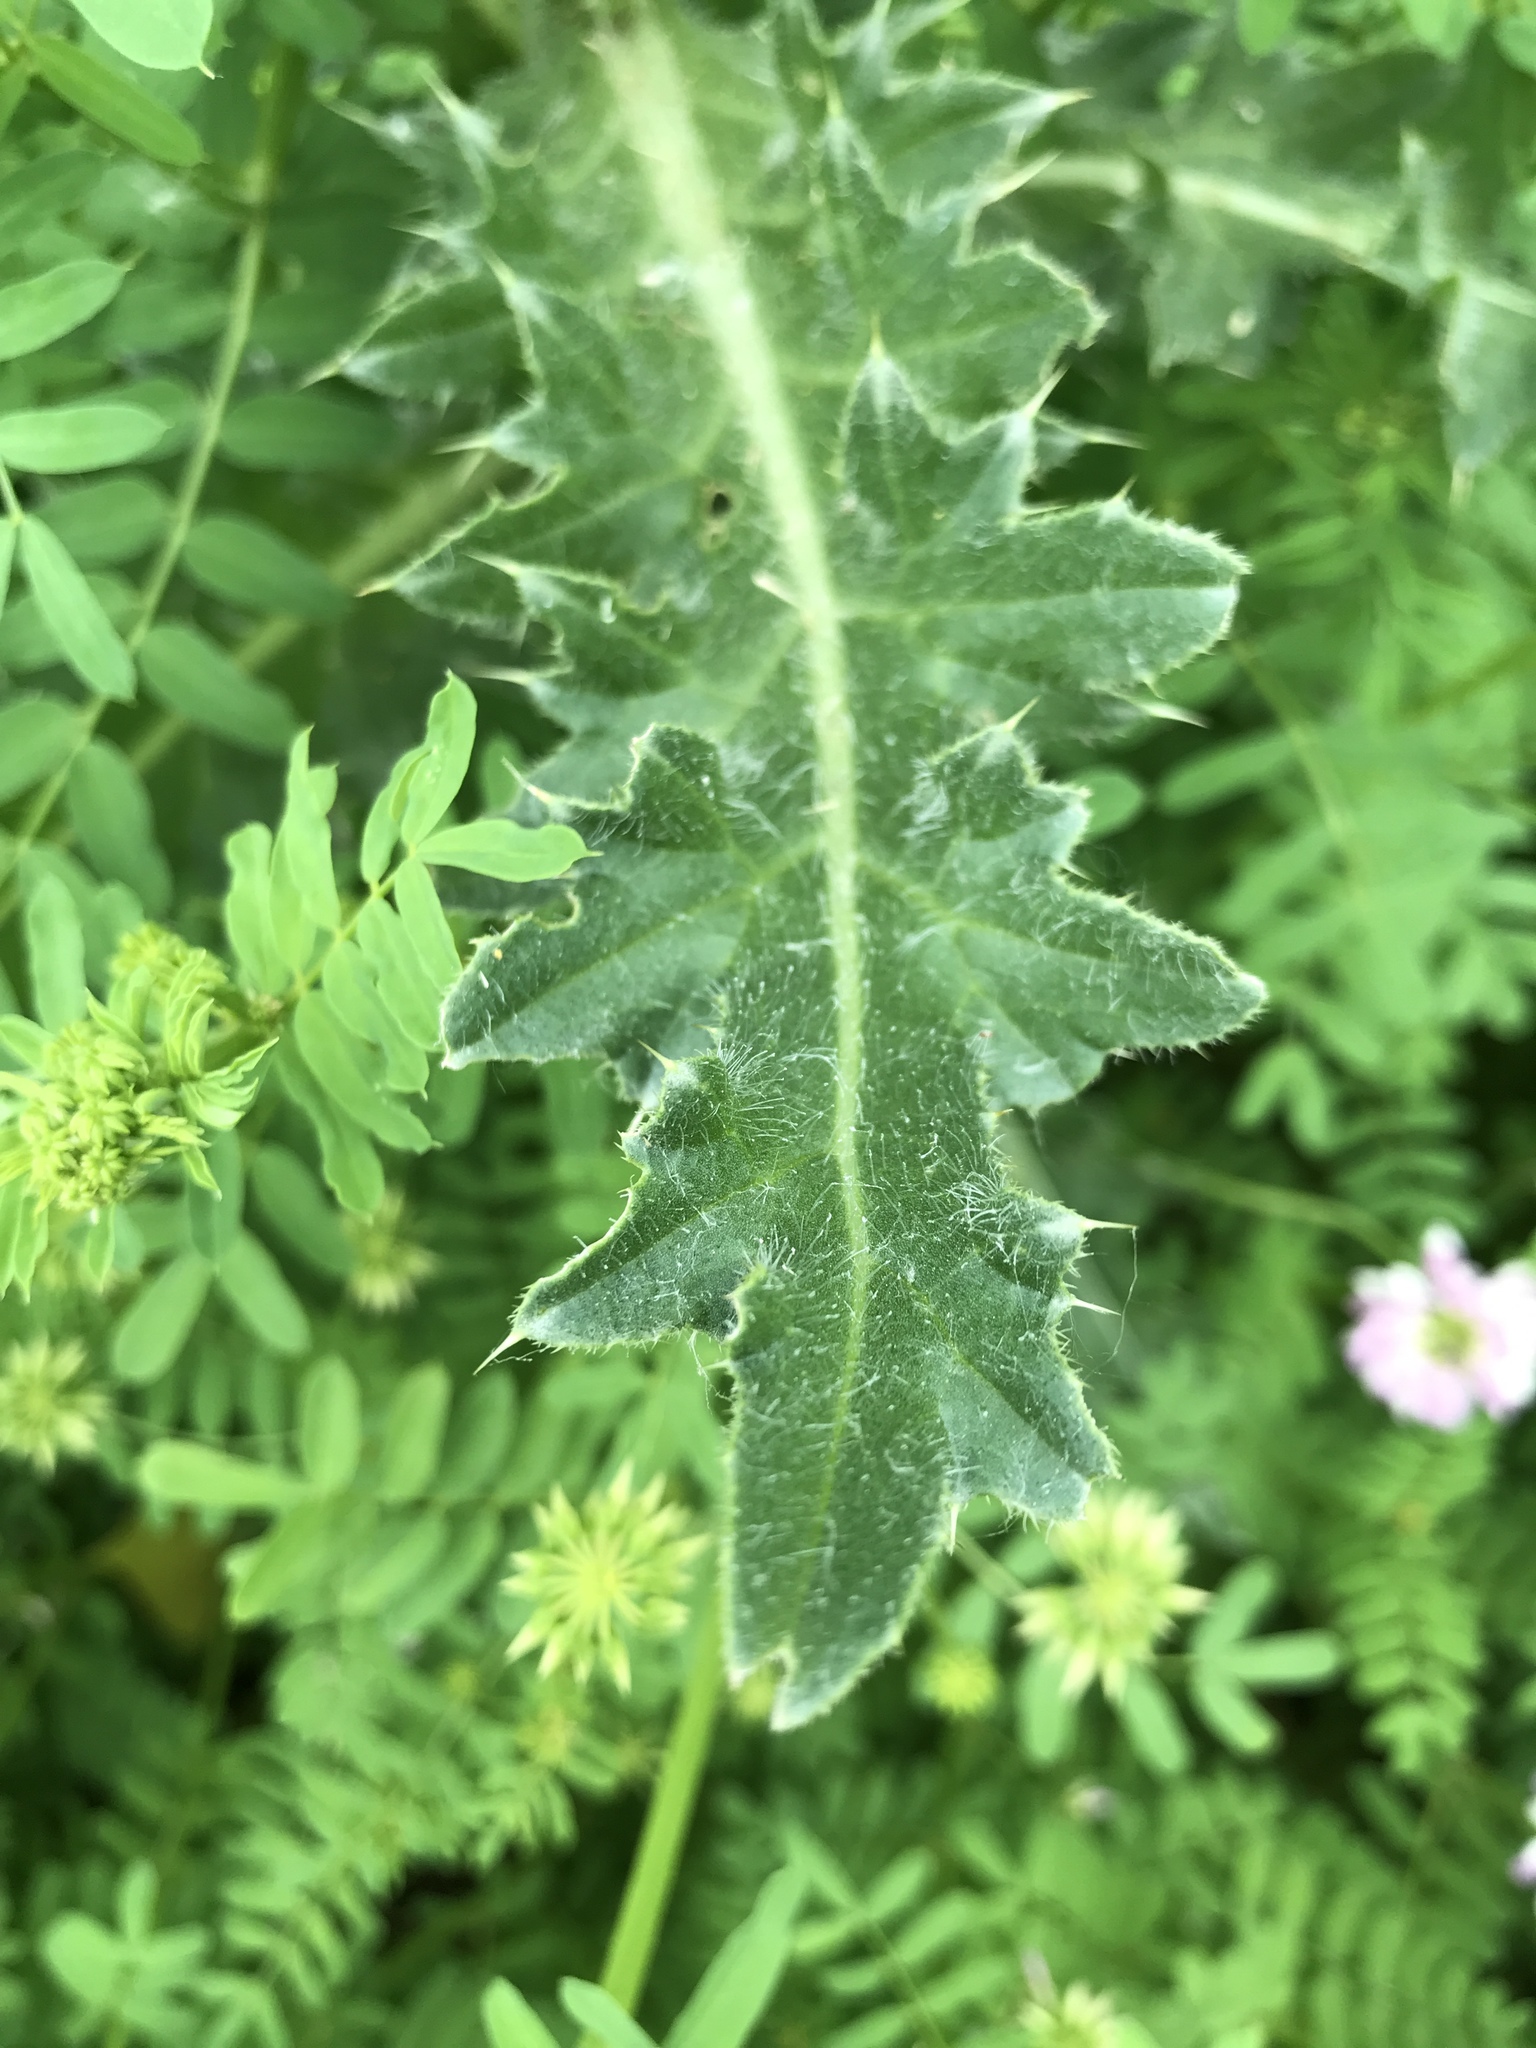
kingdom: Plantae
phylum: Tracheophyta
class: Magnoliopsida
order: Asterales
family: Asteraceae
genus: Carduus
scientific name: Carduus nutans
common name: Musk thistle
